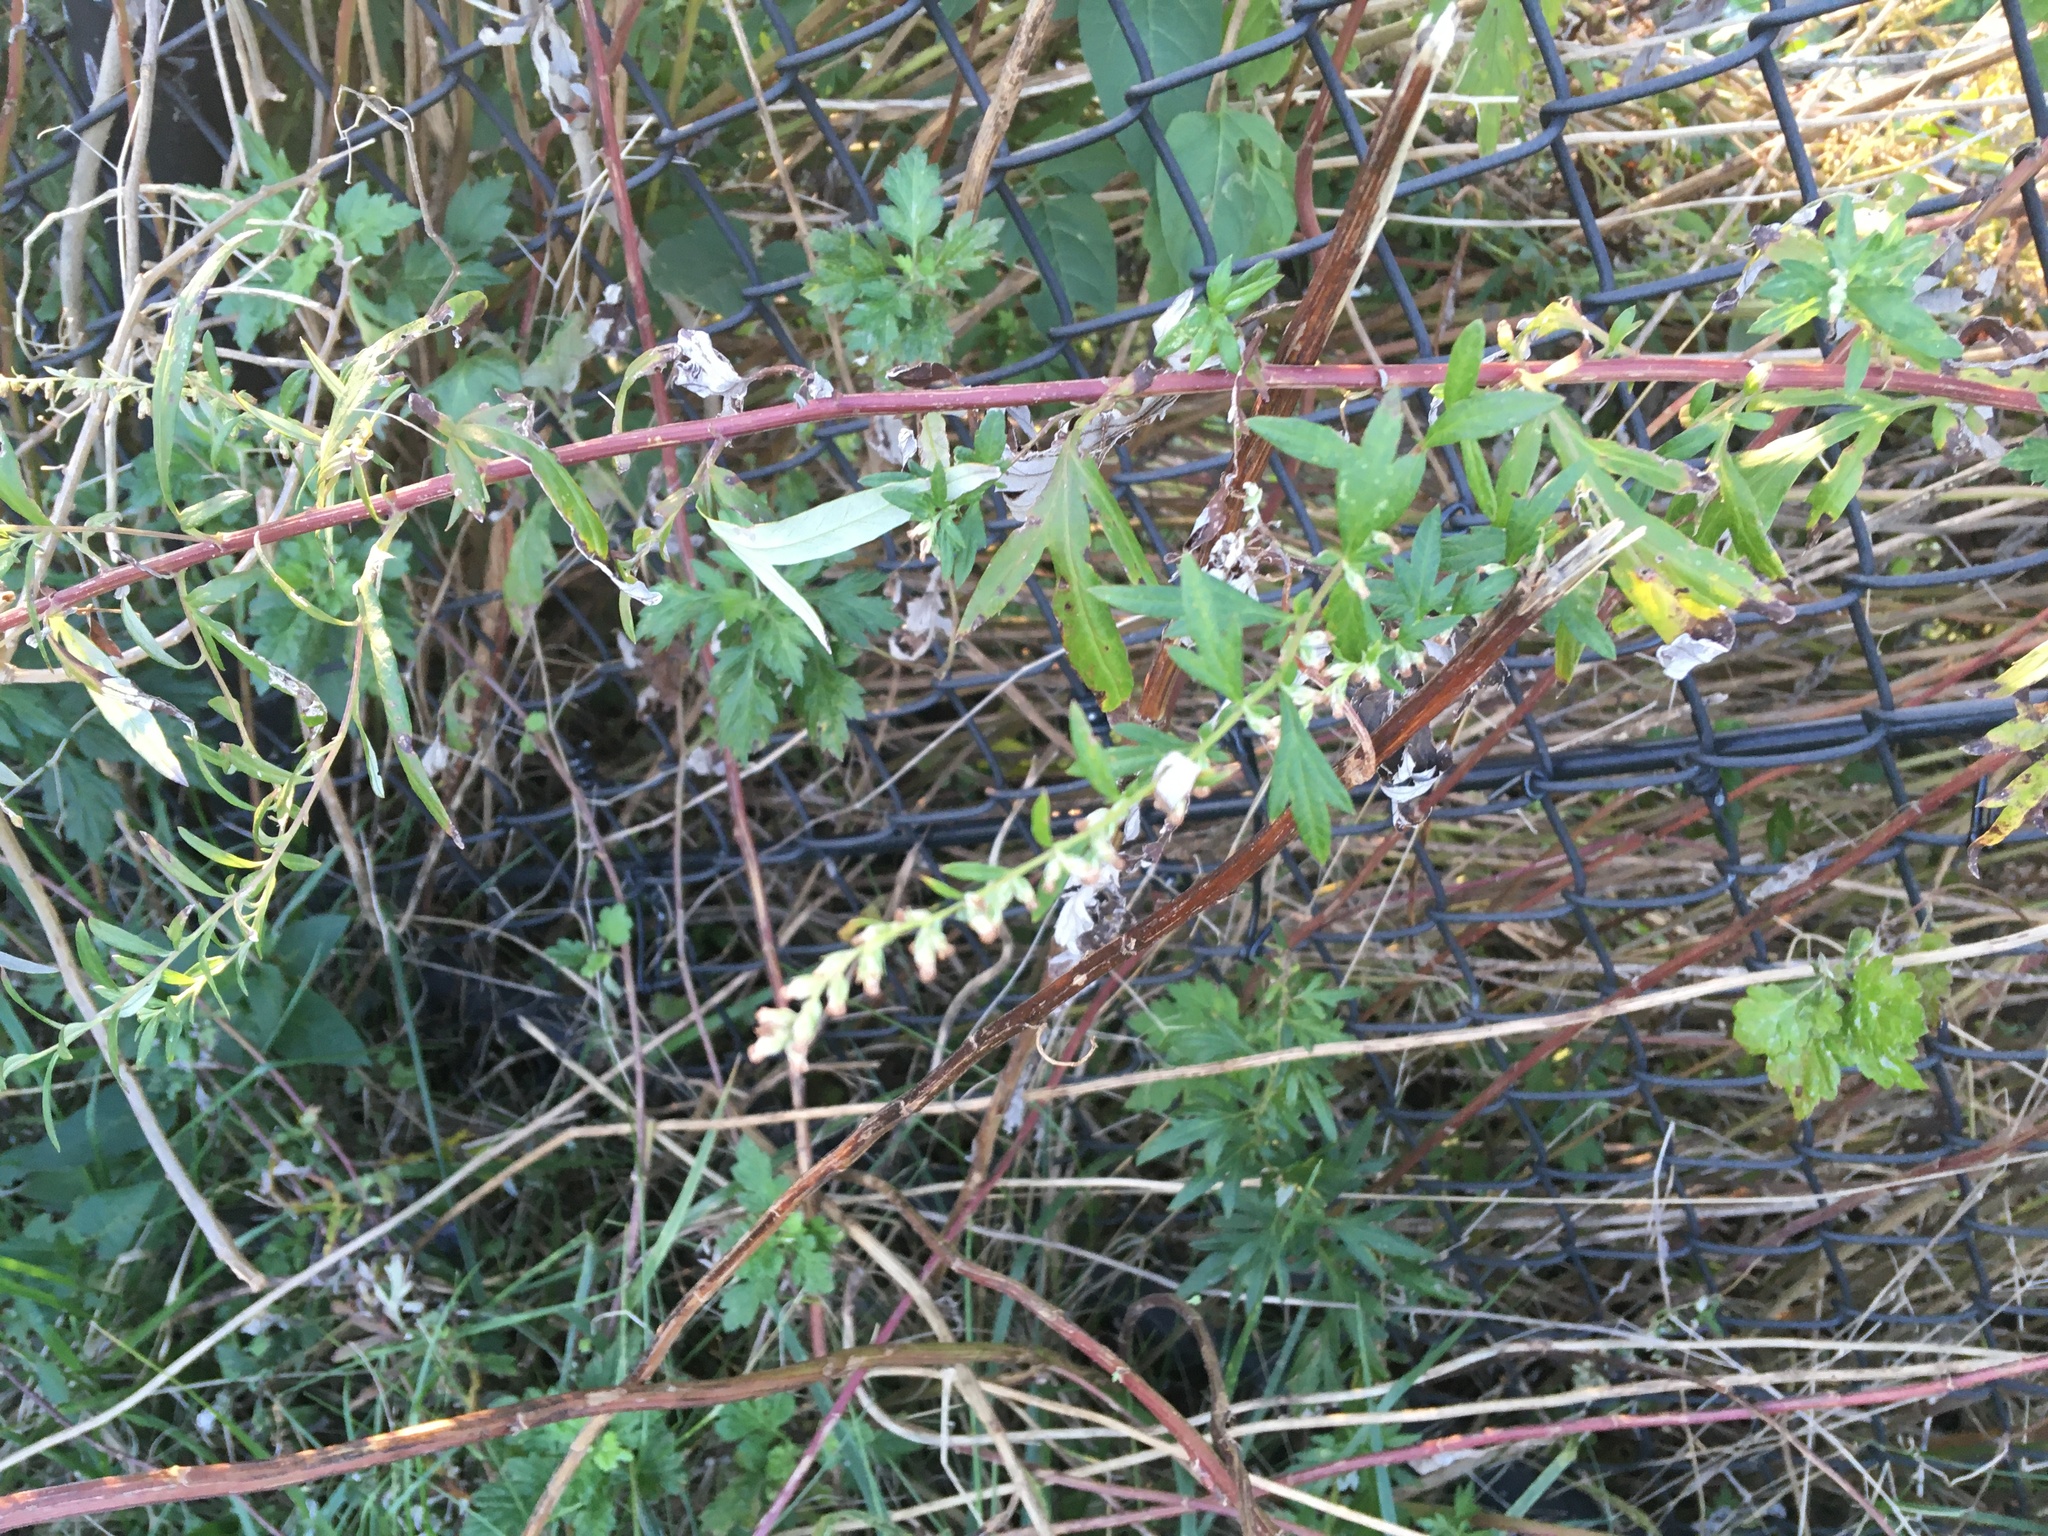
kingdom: Plantae
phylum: Tracheophyta
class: Magnoliopsida
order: Asterales
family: Asteraceae
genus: Artemisia
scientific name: Artemisia vulgaris
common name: Mugwort
